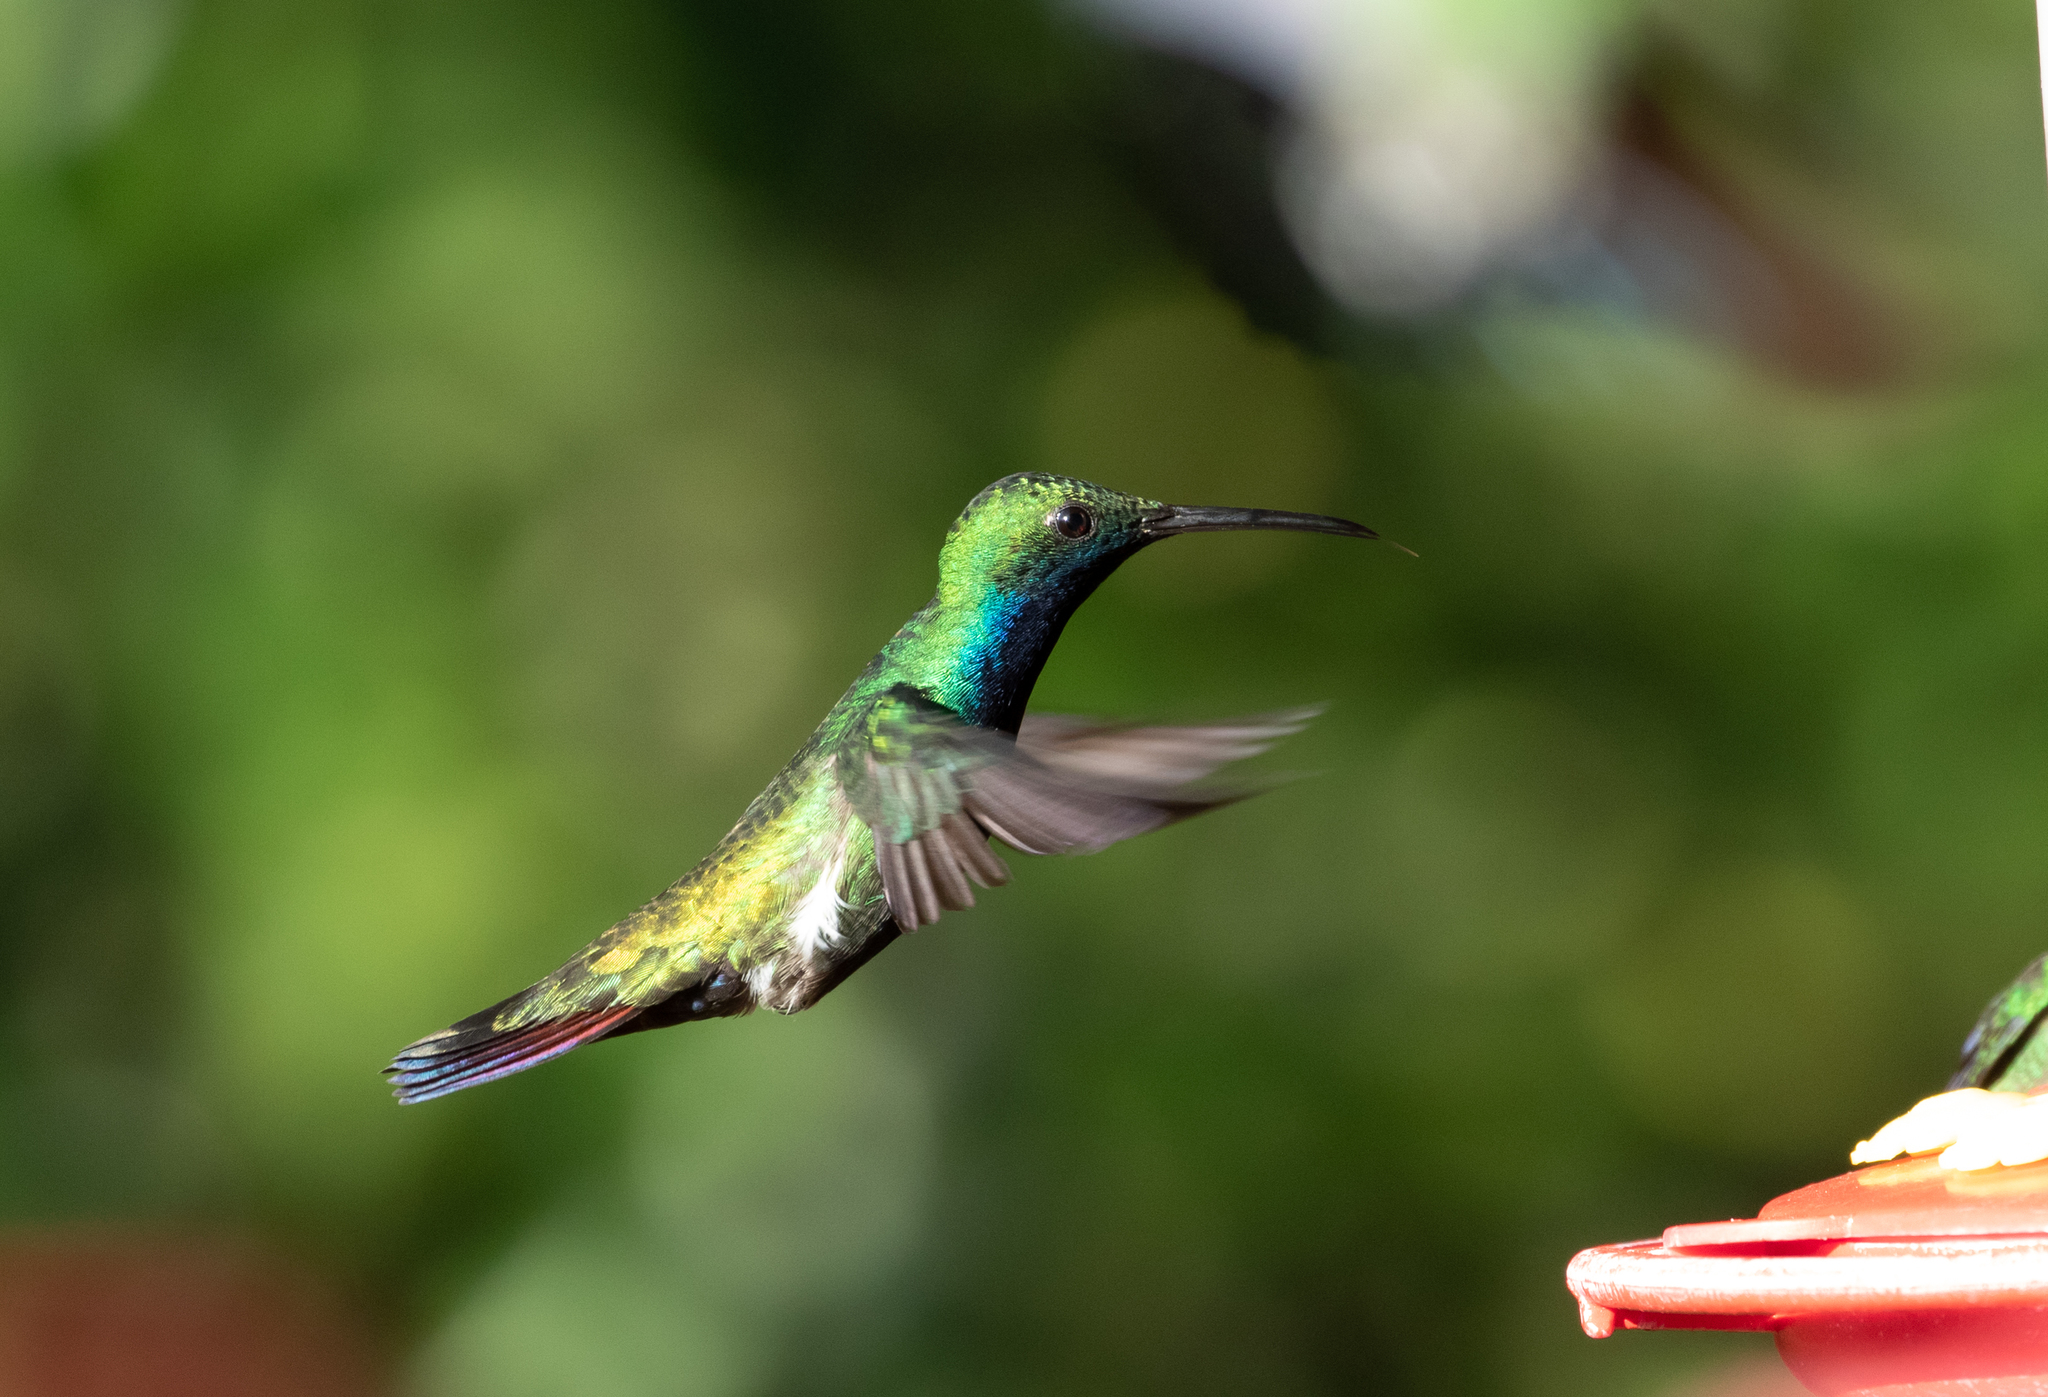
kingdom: Animalia
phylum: Chordata
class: Aves
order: Apodiformes
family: Trochilidae
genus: Anthracothorax
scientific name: Anthracothorax nigricollis
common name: Black-throated mango
